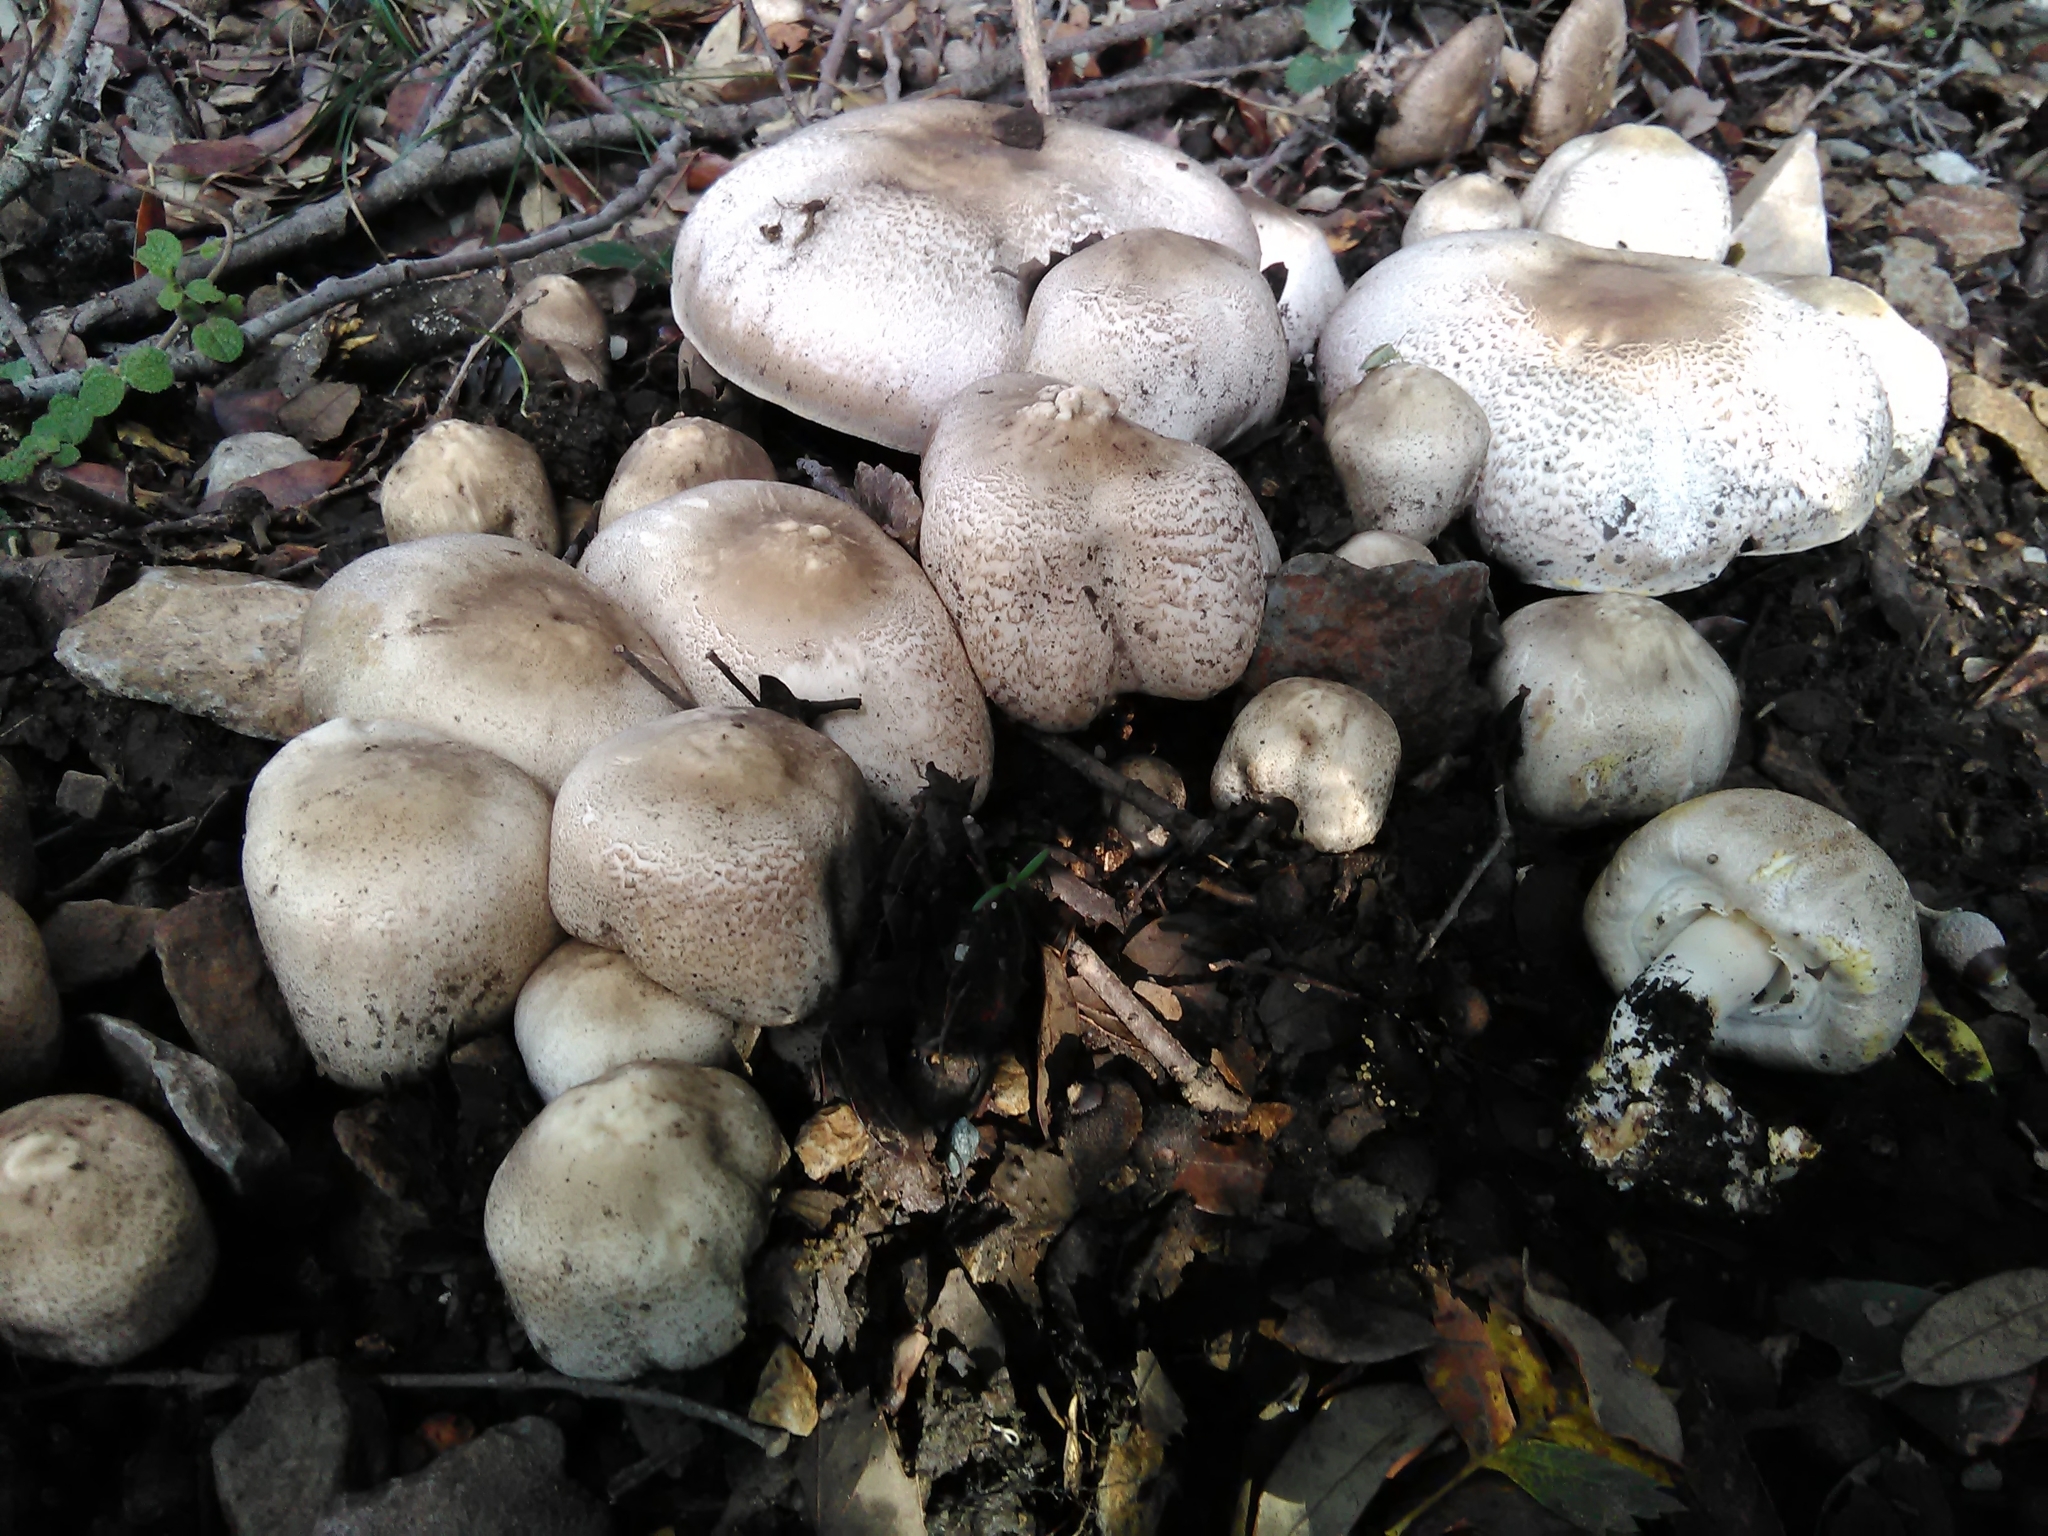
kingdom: Fungi
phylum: Basidiomycota
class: Agaricomycetes
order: Agaricales
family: Agaricaceae
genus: Agaricus
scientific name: Agaricus xanthodermus
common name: Yellow stainer
